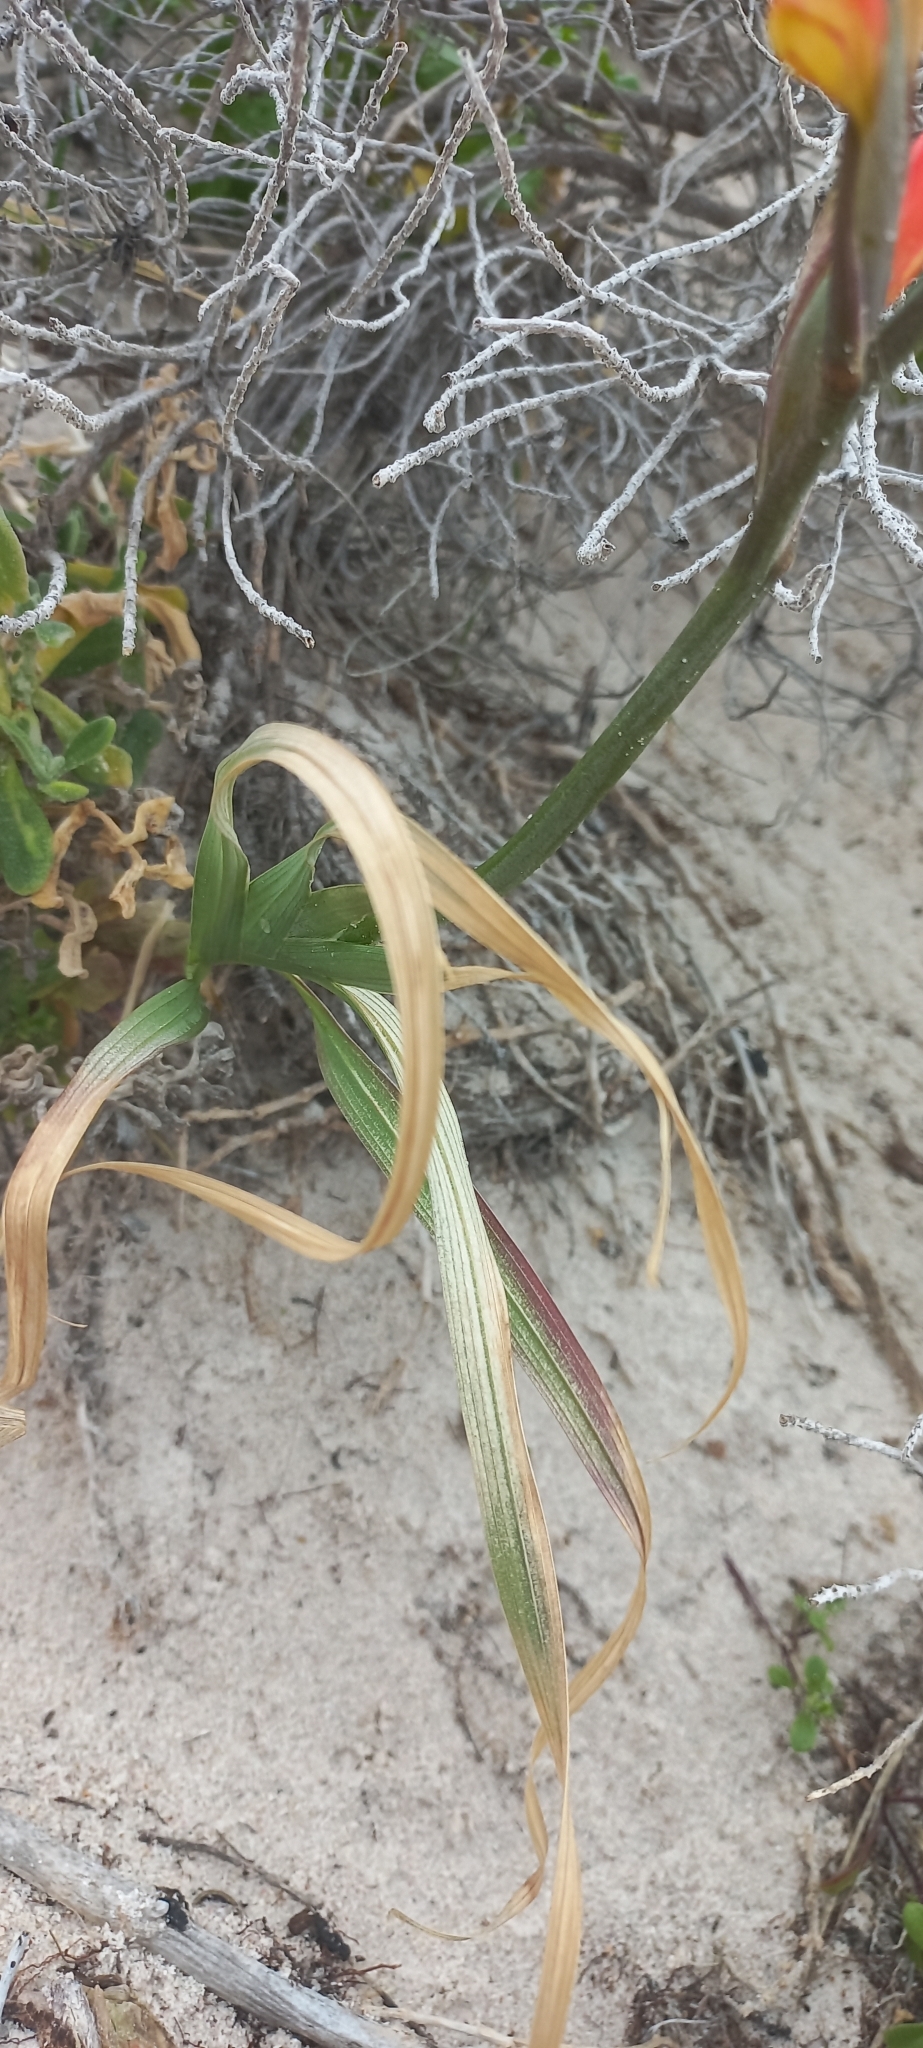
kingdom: Plantae
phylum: Tracheophyta
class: Liliopsida
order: Asparagales
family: Iridaceae
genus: Gladiolus
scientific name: Gladiolus cunonius
